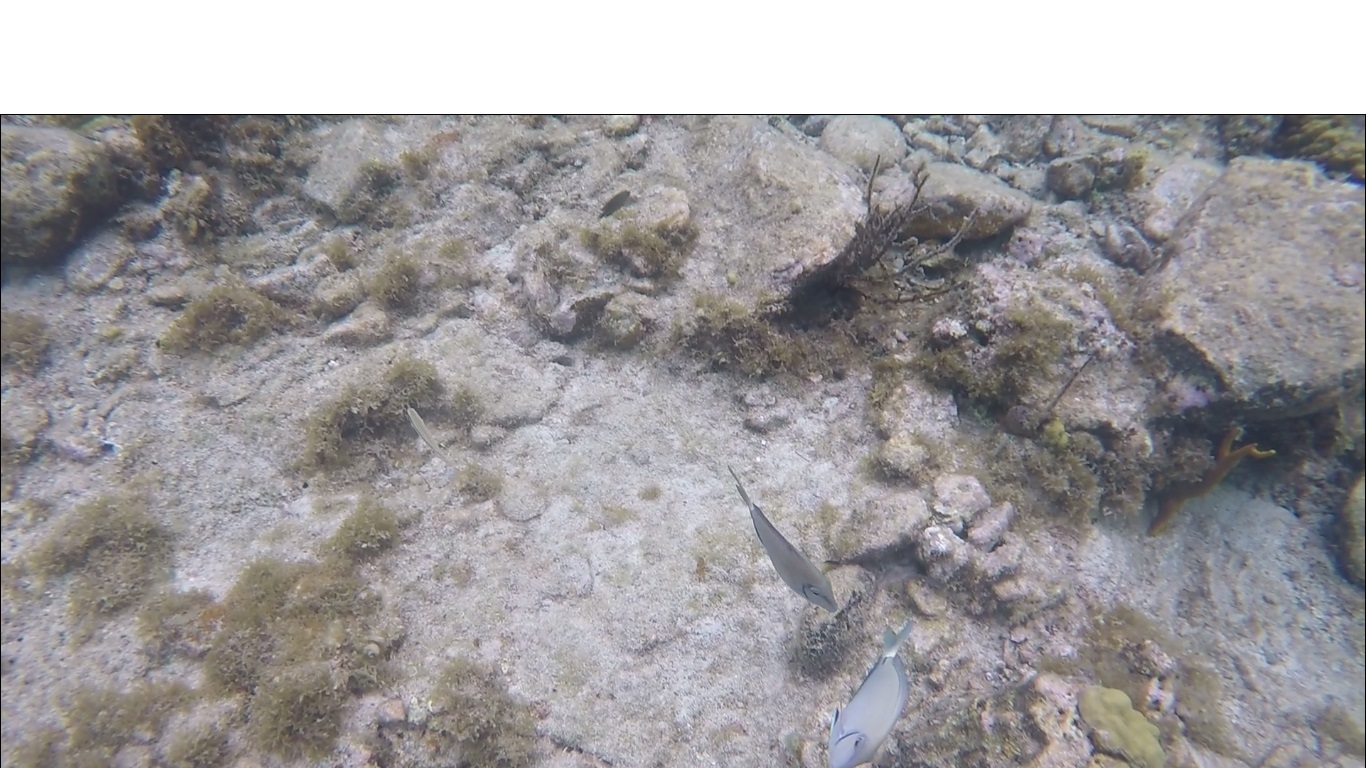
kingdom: Animalia
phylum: Chordata
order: Perciformes
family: Acanthuridae
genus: Acanthurus
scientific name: Acanthurus bahianus
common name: Ocean surgeon
